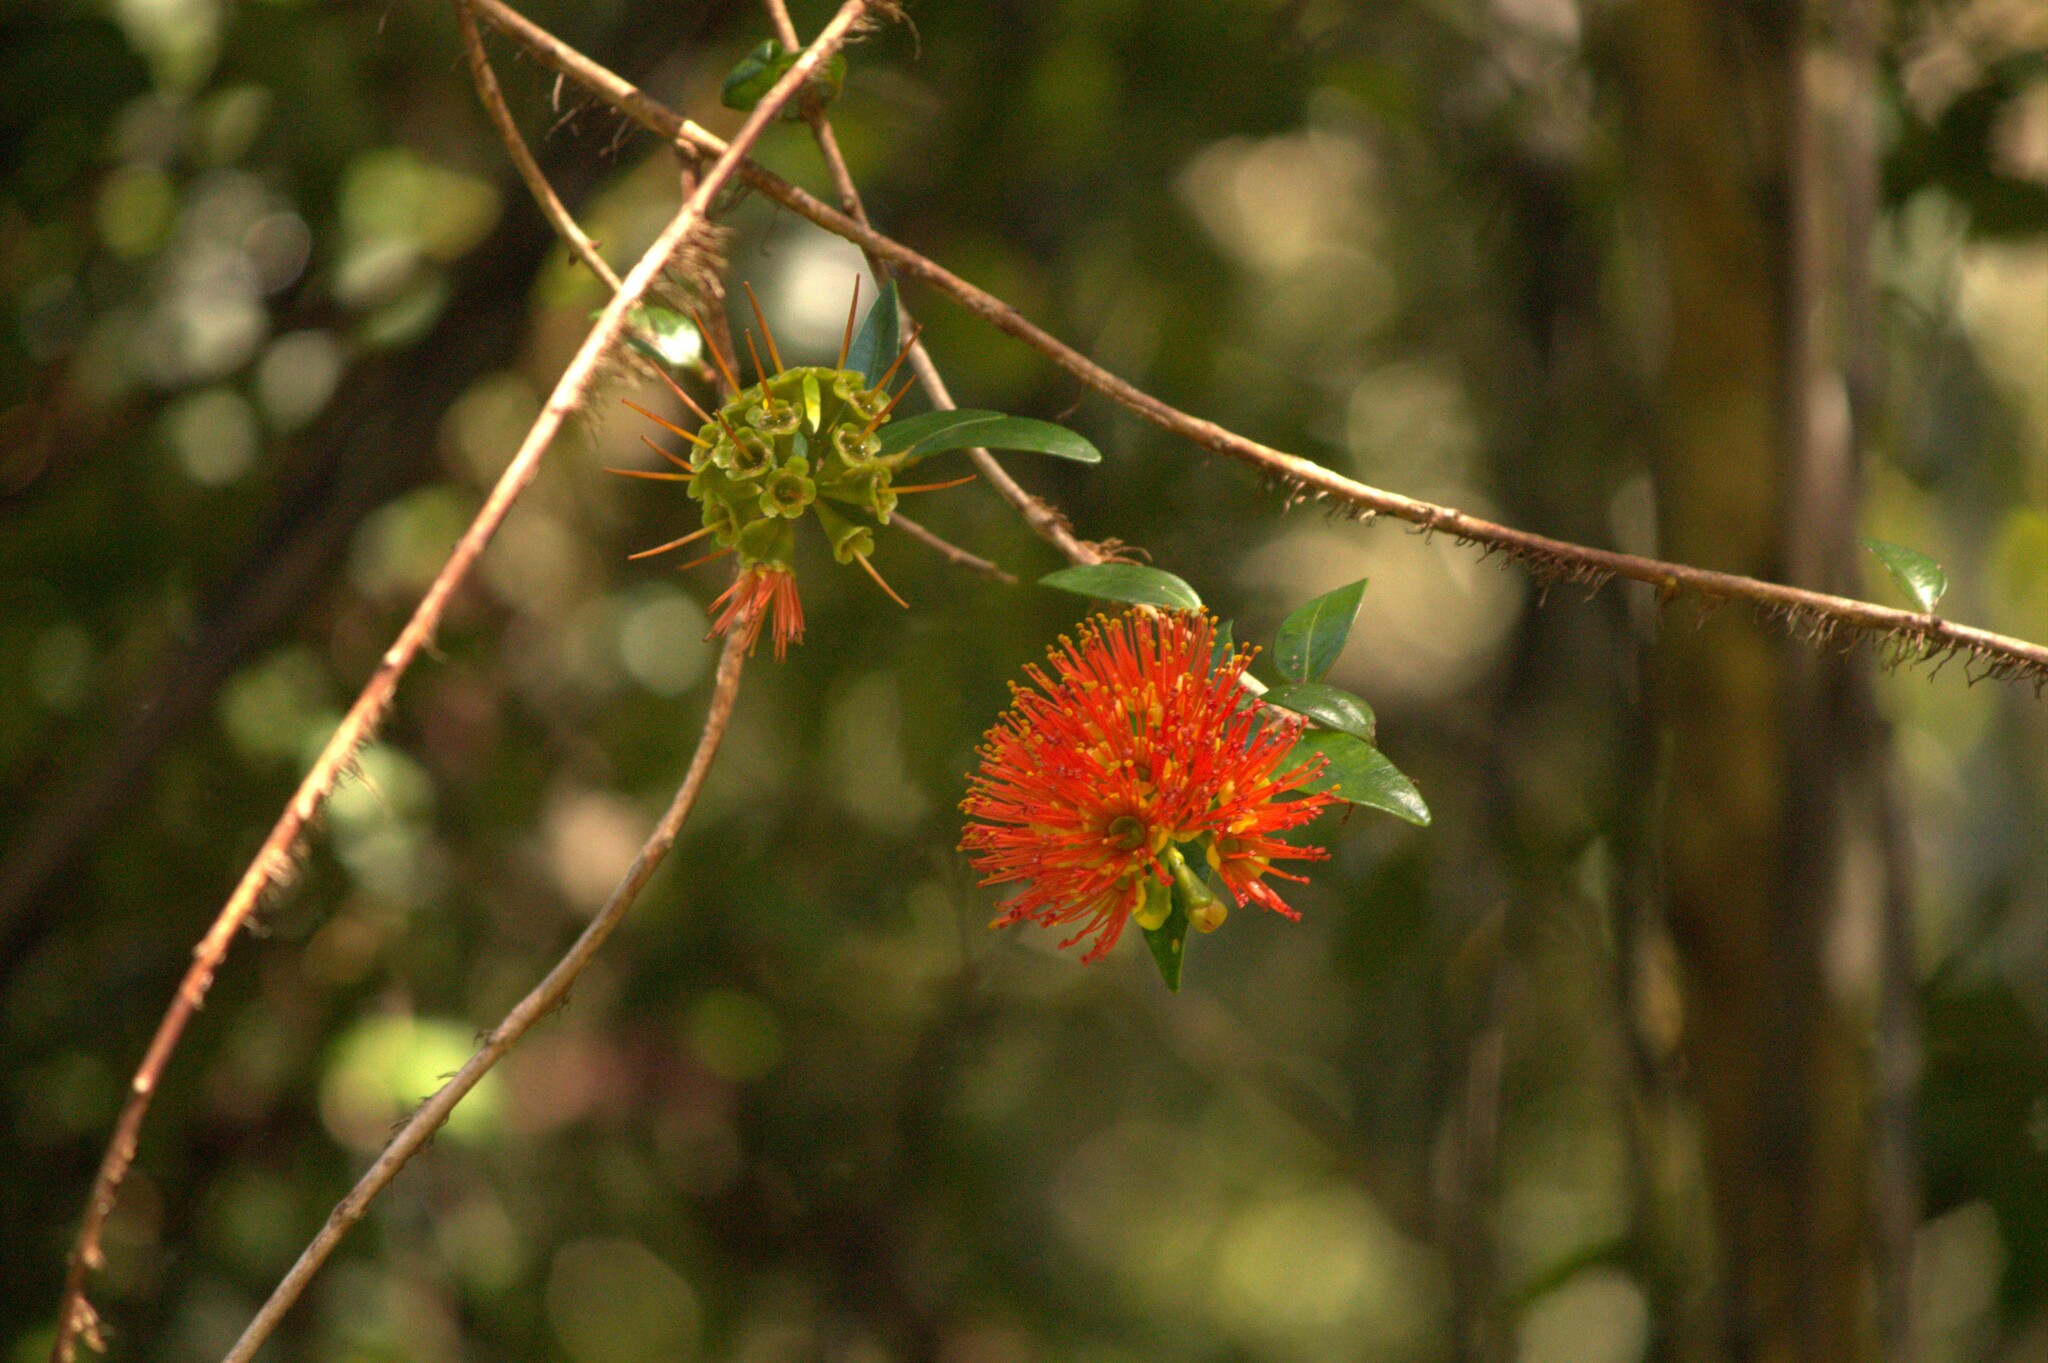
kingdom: Plantae
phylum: Tracheophyta
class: Magnoliopsida
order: Myrtales
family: Myrtaceae
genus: Metrosideros
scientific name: Metrosideros fulgens
